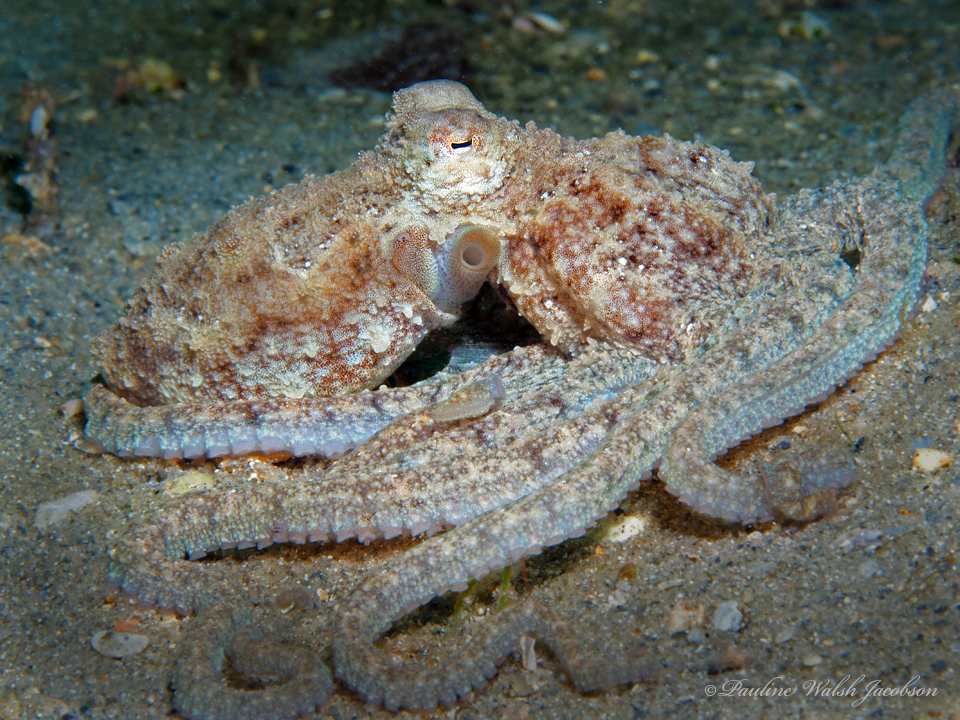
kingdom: Animalia
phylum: Mollusca
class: Cephalopoda
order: Octopoda
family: Octopodidae
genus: Macrotritopus
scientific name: Macrotritopus defilippi
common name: Lilliput longarm octopus
